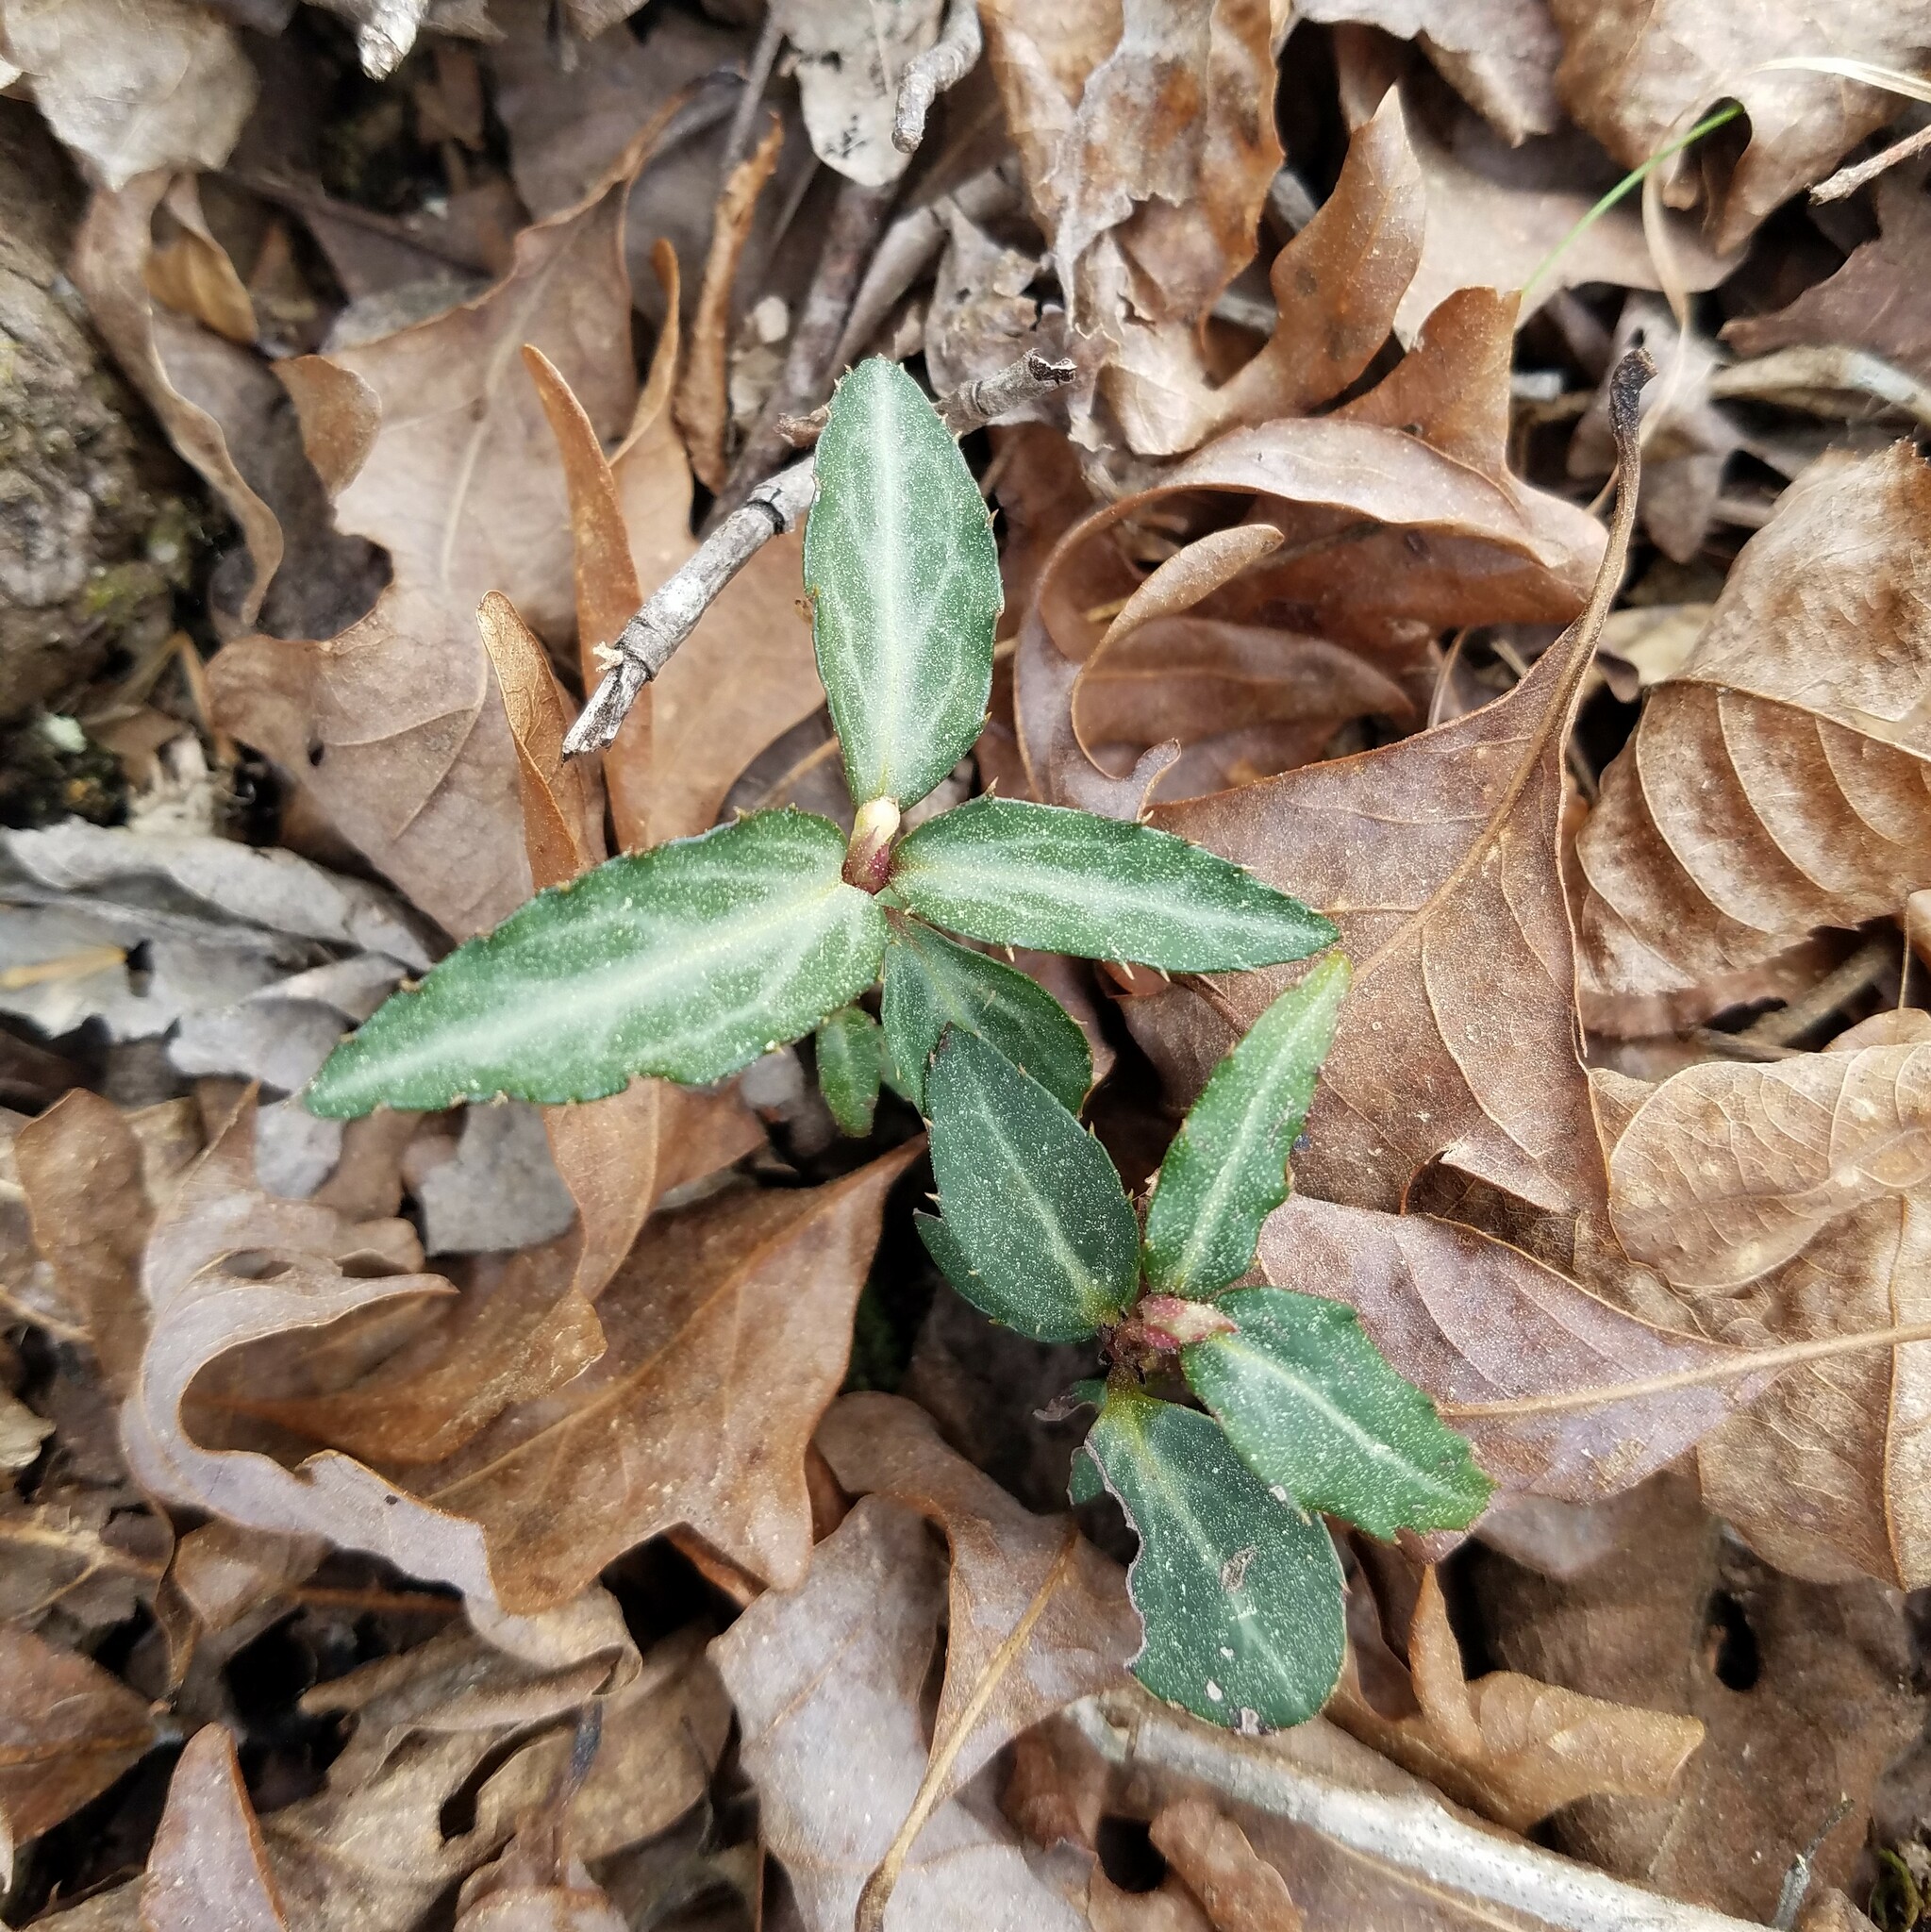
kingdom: Plantae
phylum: Tracheophyta
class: Magnoliopsida
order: Ericales
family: Ericaceae
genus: Chimaphila
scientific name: Chimaphila maculata
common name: Spotted pipsissewa
